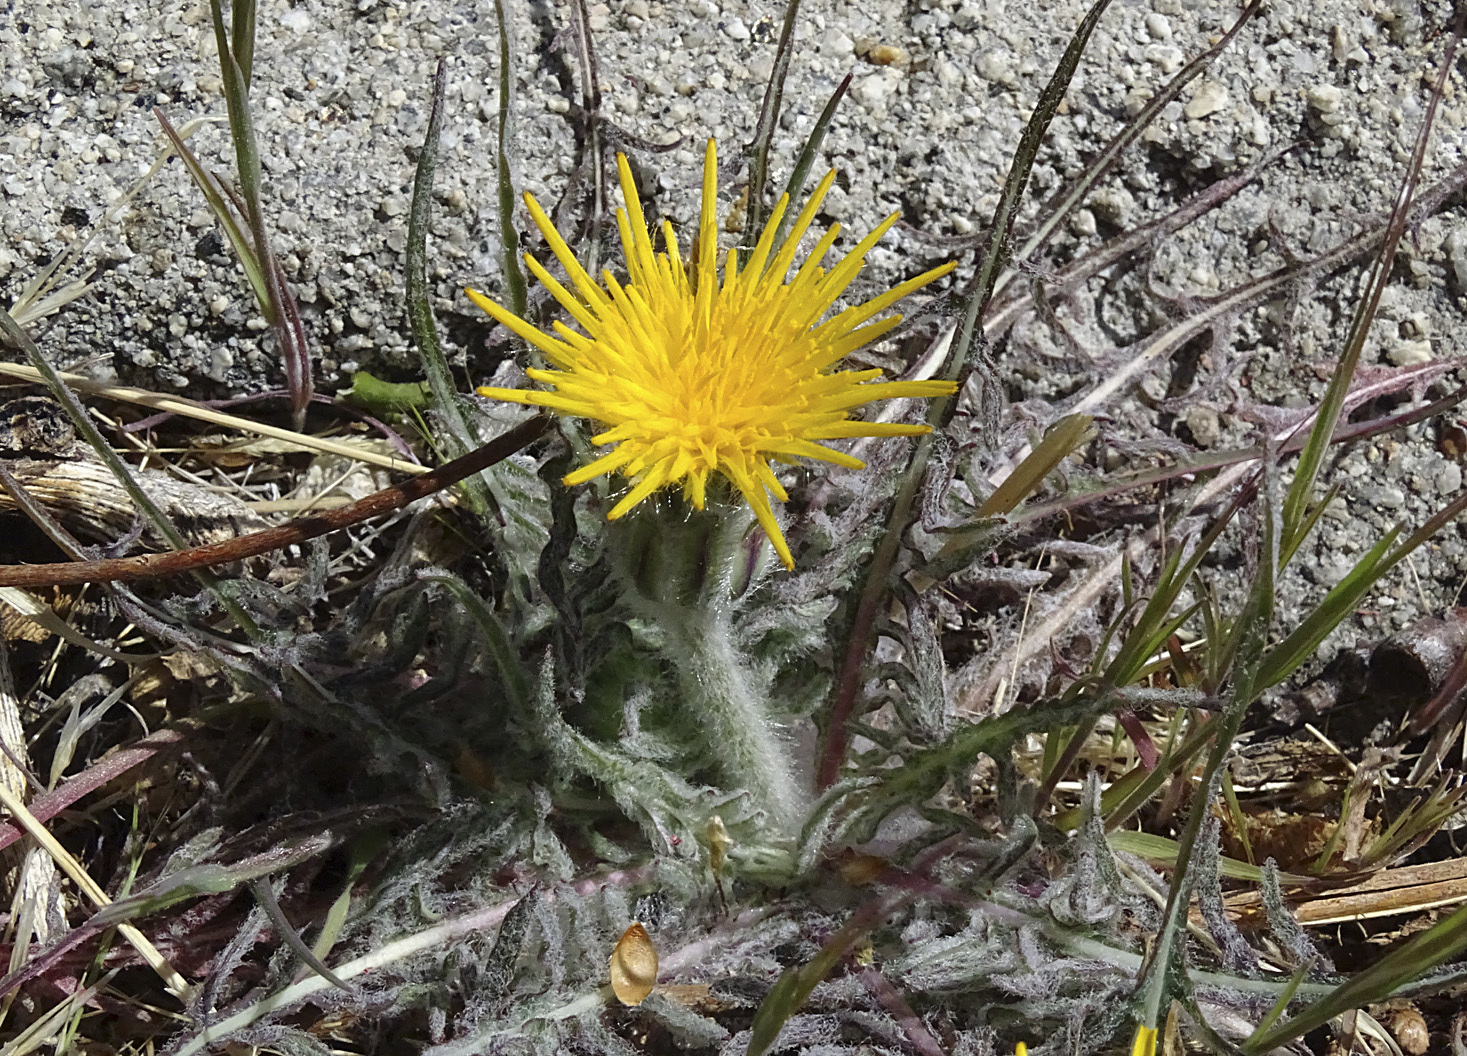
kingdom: Plantae
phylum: Tracheophyta
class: Magnoliopsida
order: Asterales
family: Asteraceae
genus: Agoseris
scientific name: Agoseris retrorsa
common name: Spearleaf agoseris
